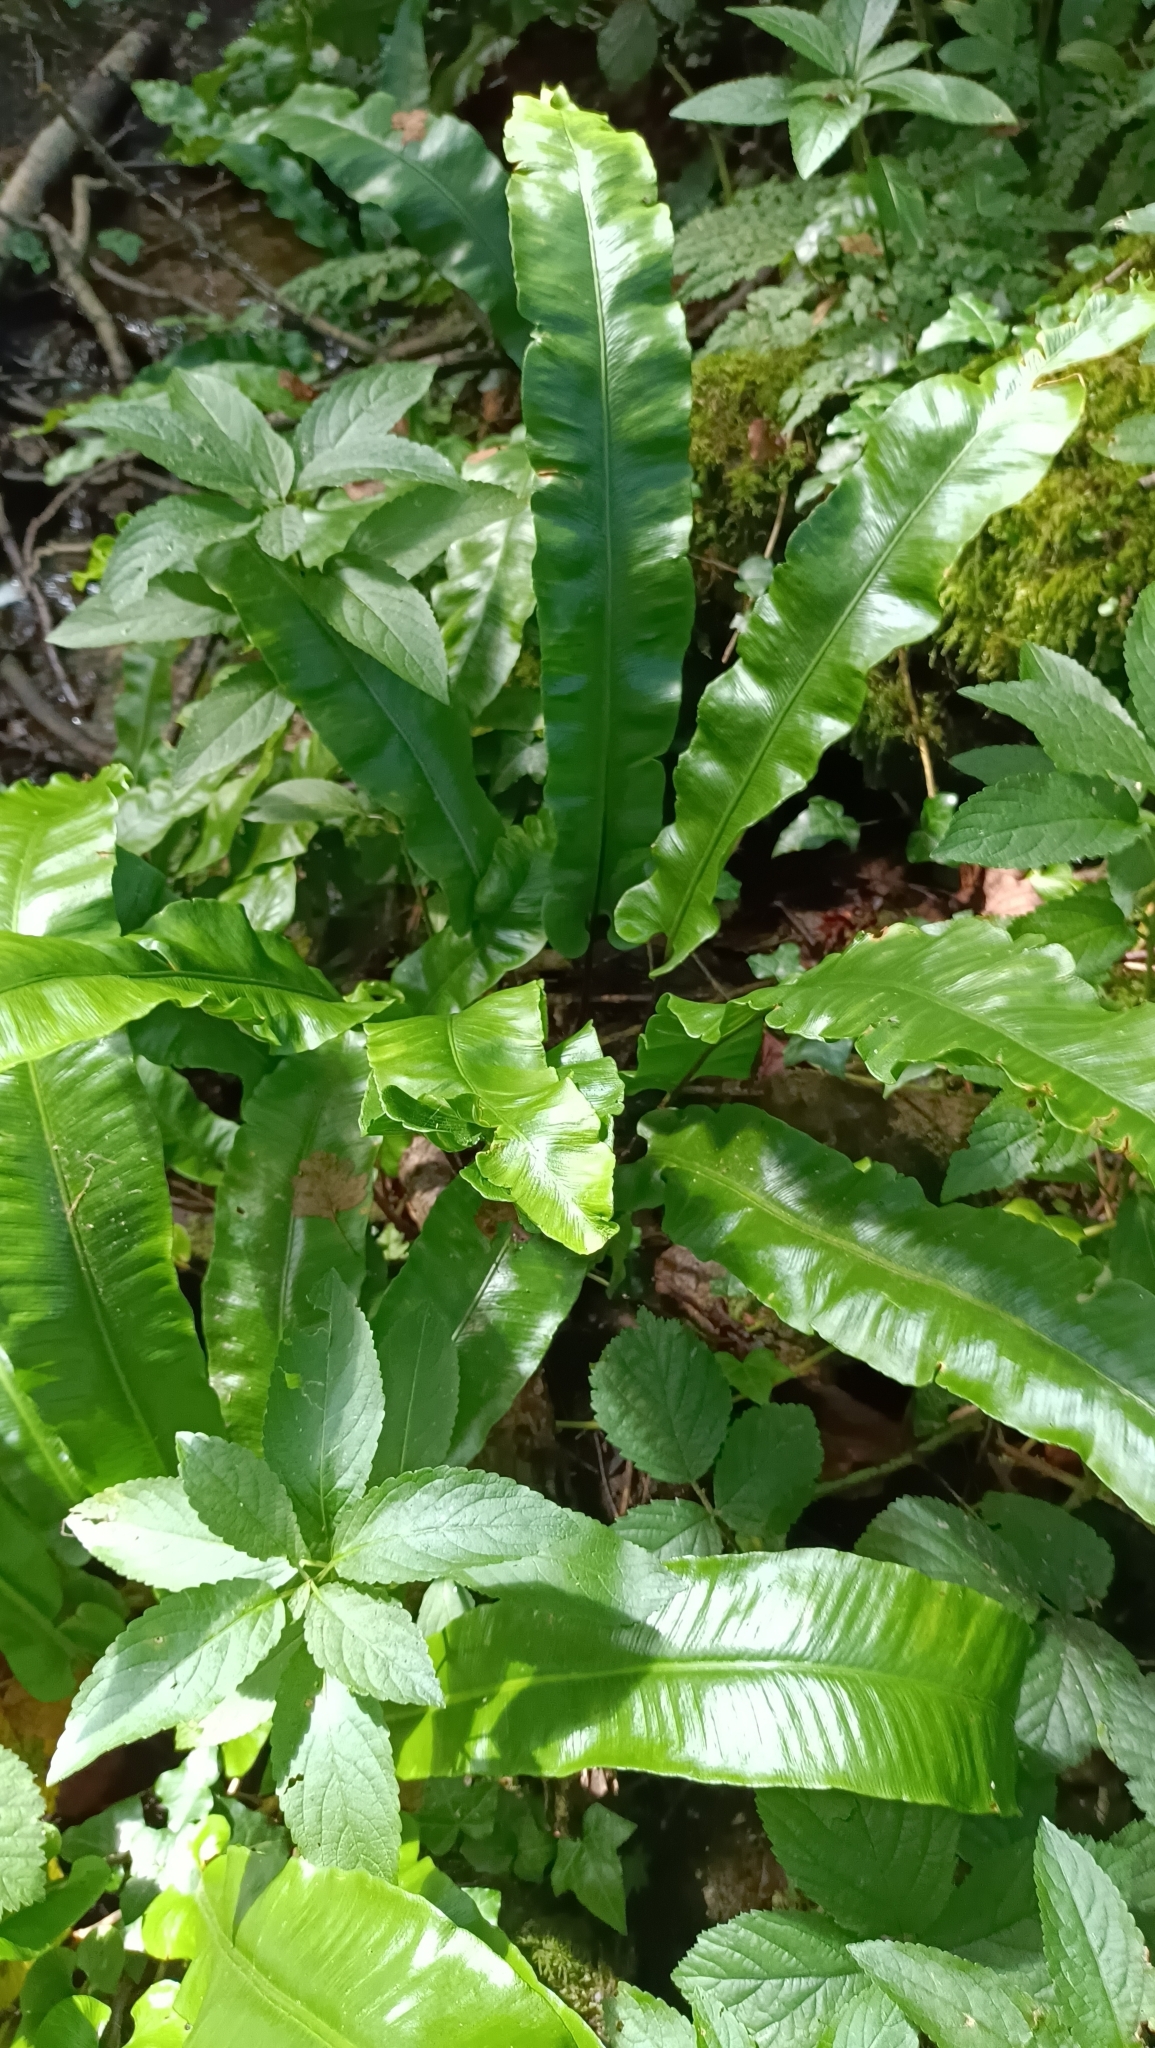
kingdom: Plantae
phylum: Tracheophyta
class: Polypodiopsida
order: Polypodiales
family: Aspleniaceae
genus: Asplenium
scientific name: Asplenium scolopendrium
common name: Hart's-tongue fern
